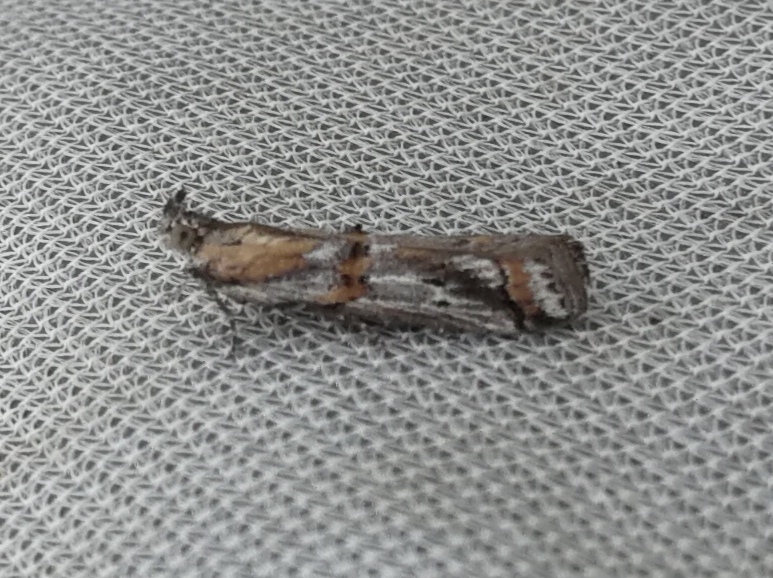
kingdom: Animalia
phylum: Arthropoda
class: Insecta
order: Lepidoptera
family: Pyralidae
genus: Asalebria
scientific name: Asalebria florella
